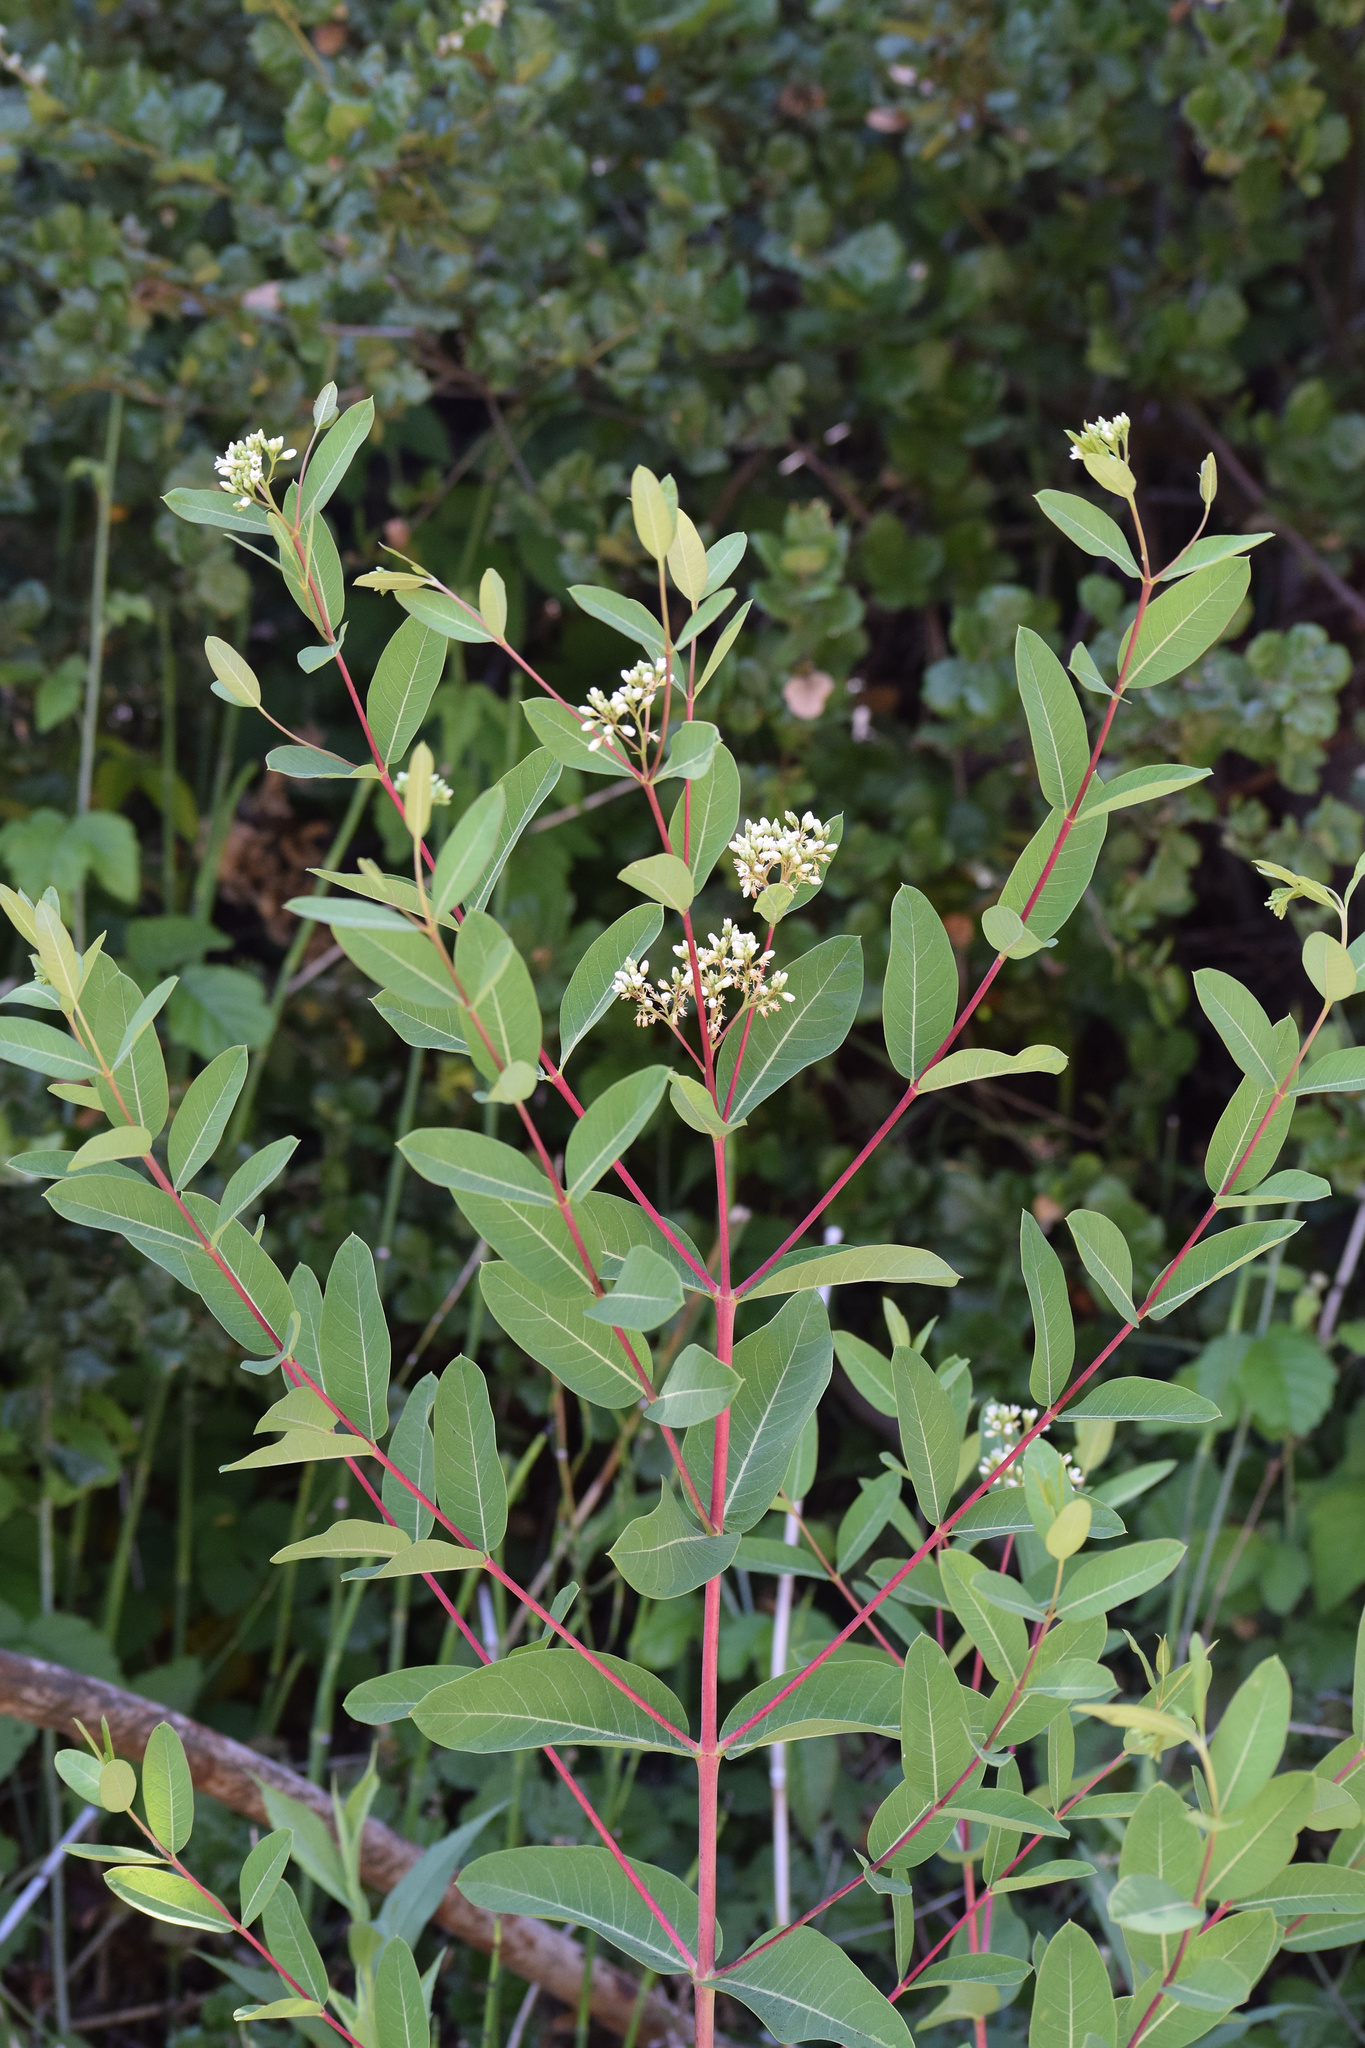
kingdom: Plantae
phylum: Tracheophyta
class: Magnoliopsida
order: Gentianales
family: Apocynaceae
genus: Apocynum
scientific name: Apocynum cannabinum
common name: Hemp dogbane
